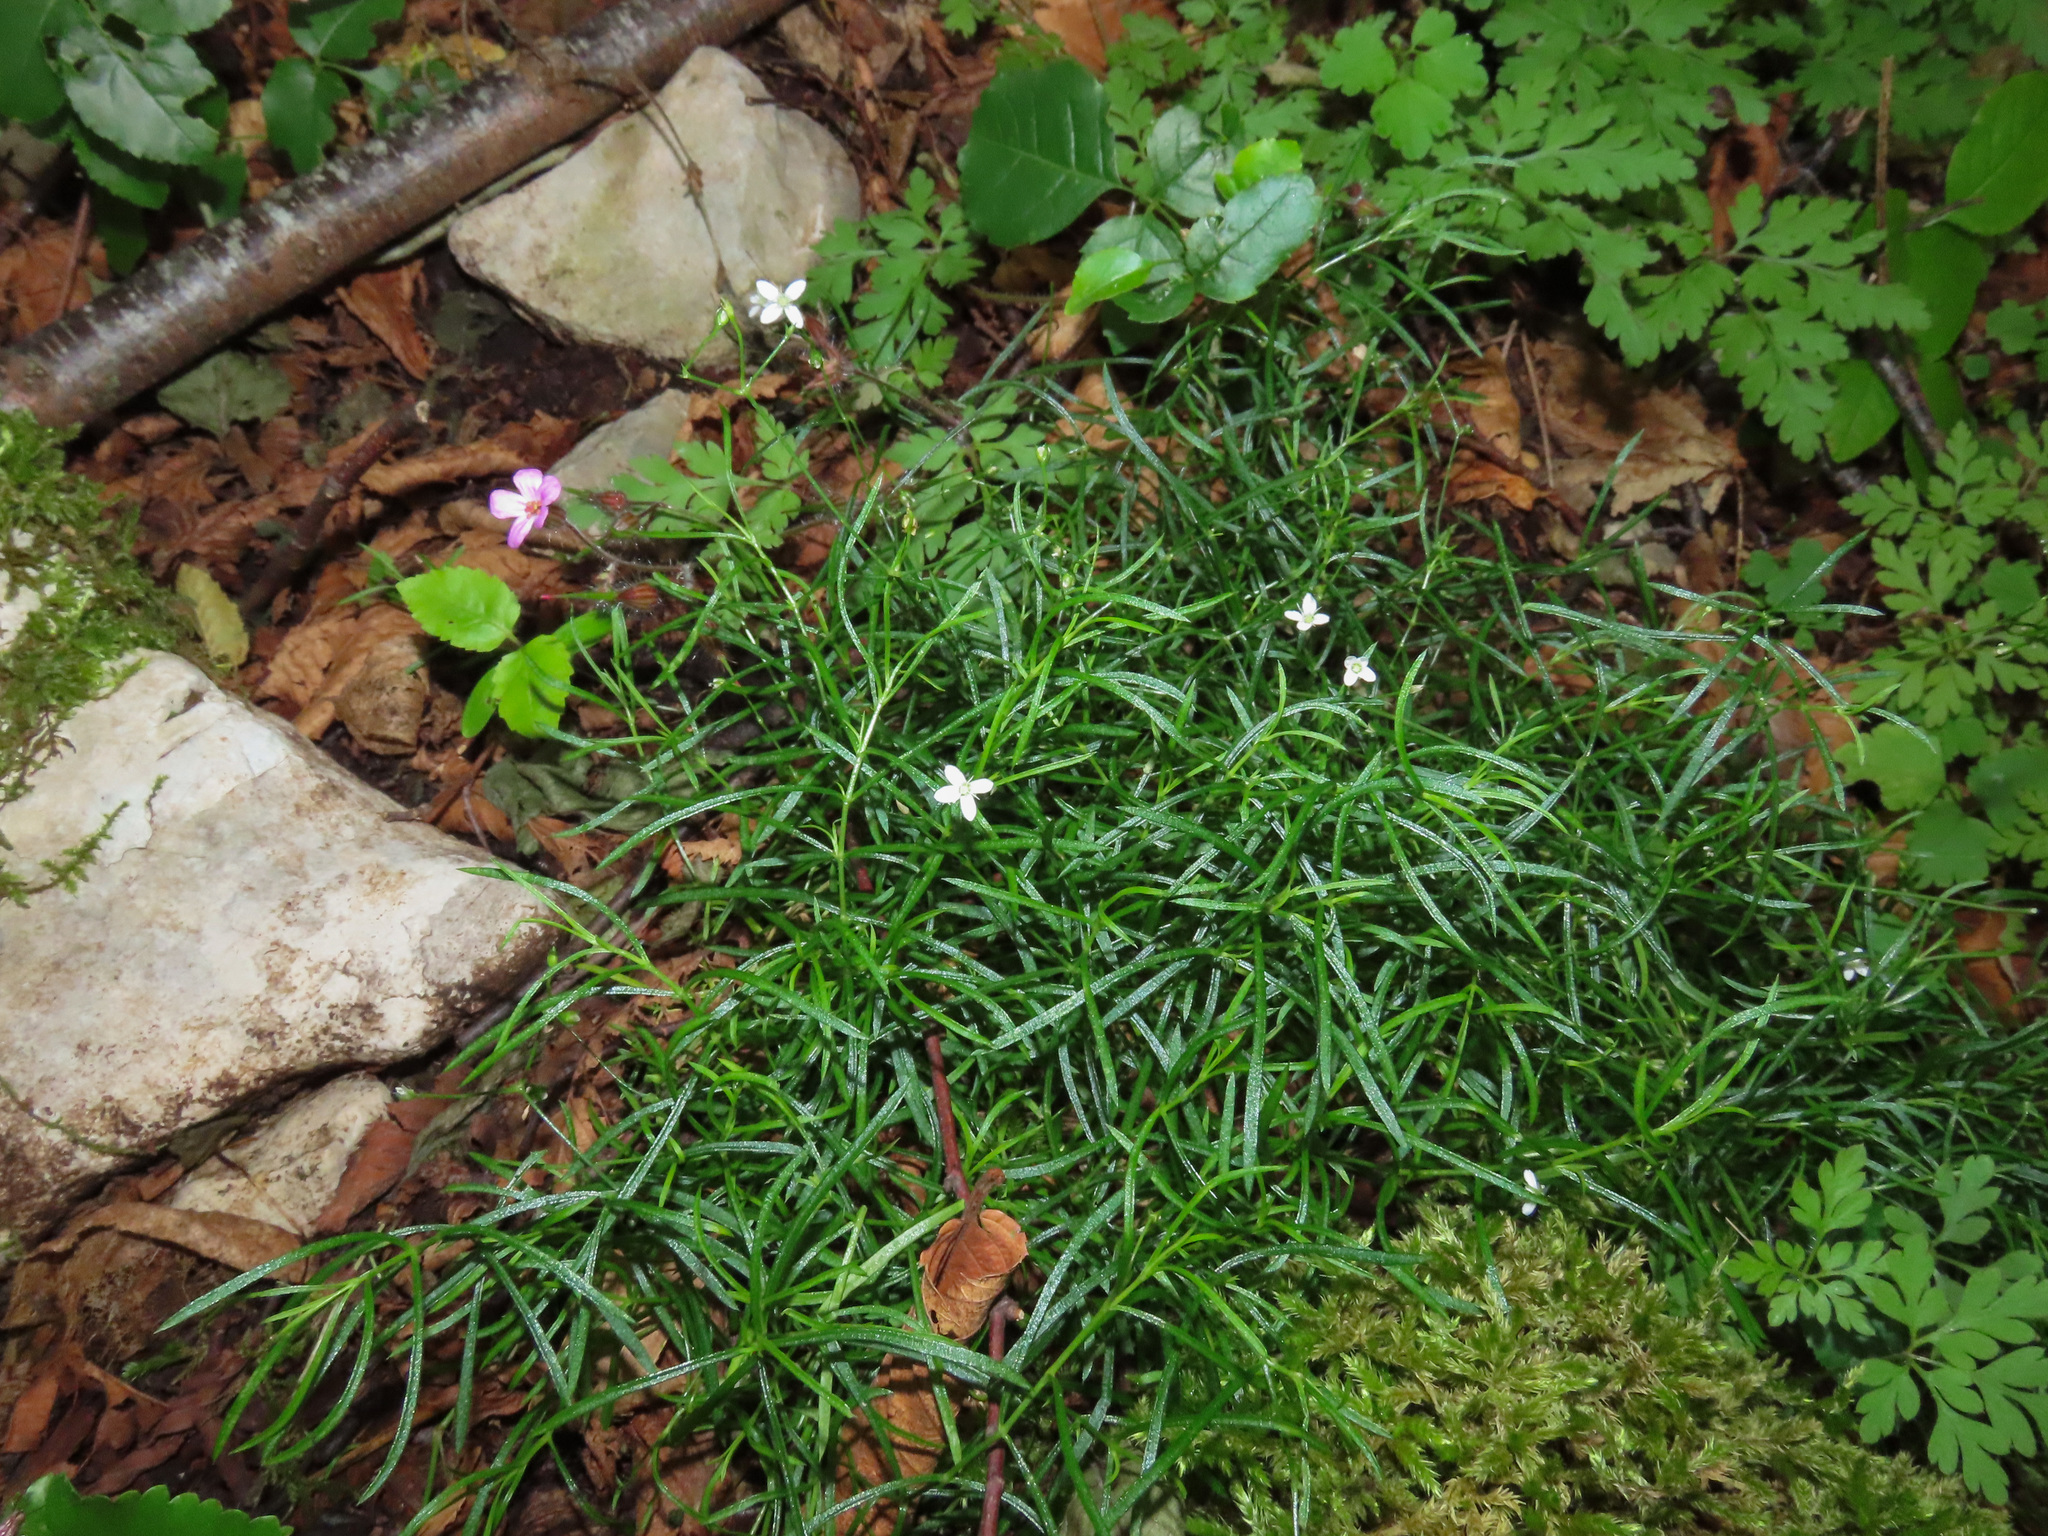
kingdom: Plantae
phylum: Tracheophyta
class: Magnoliopsida
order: Caryophyllales
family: Caryophyllaceae
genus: Moehringia
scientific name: Moehringia muscosa
